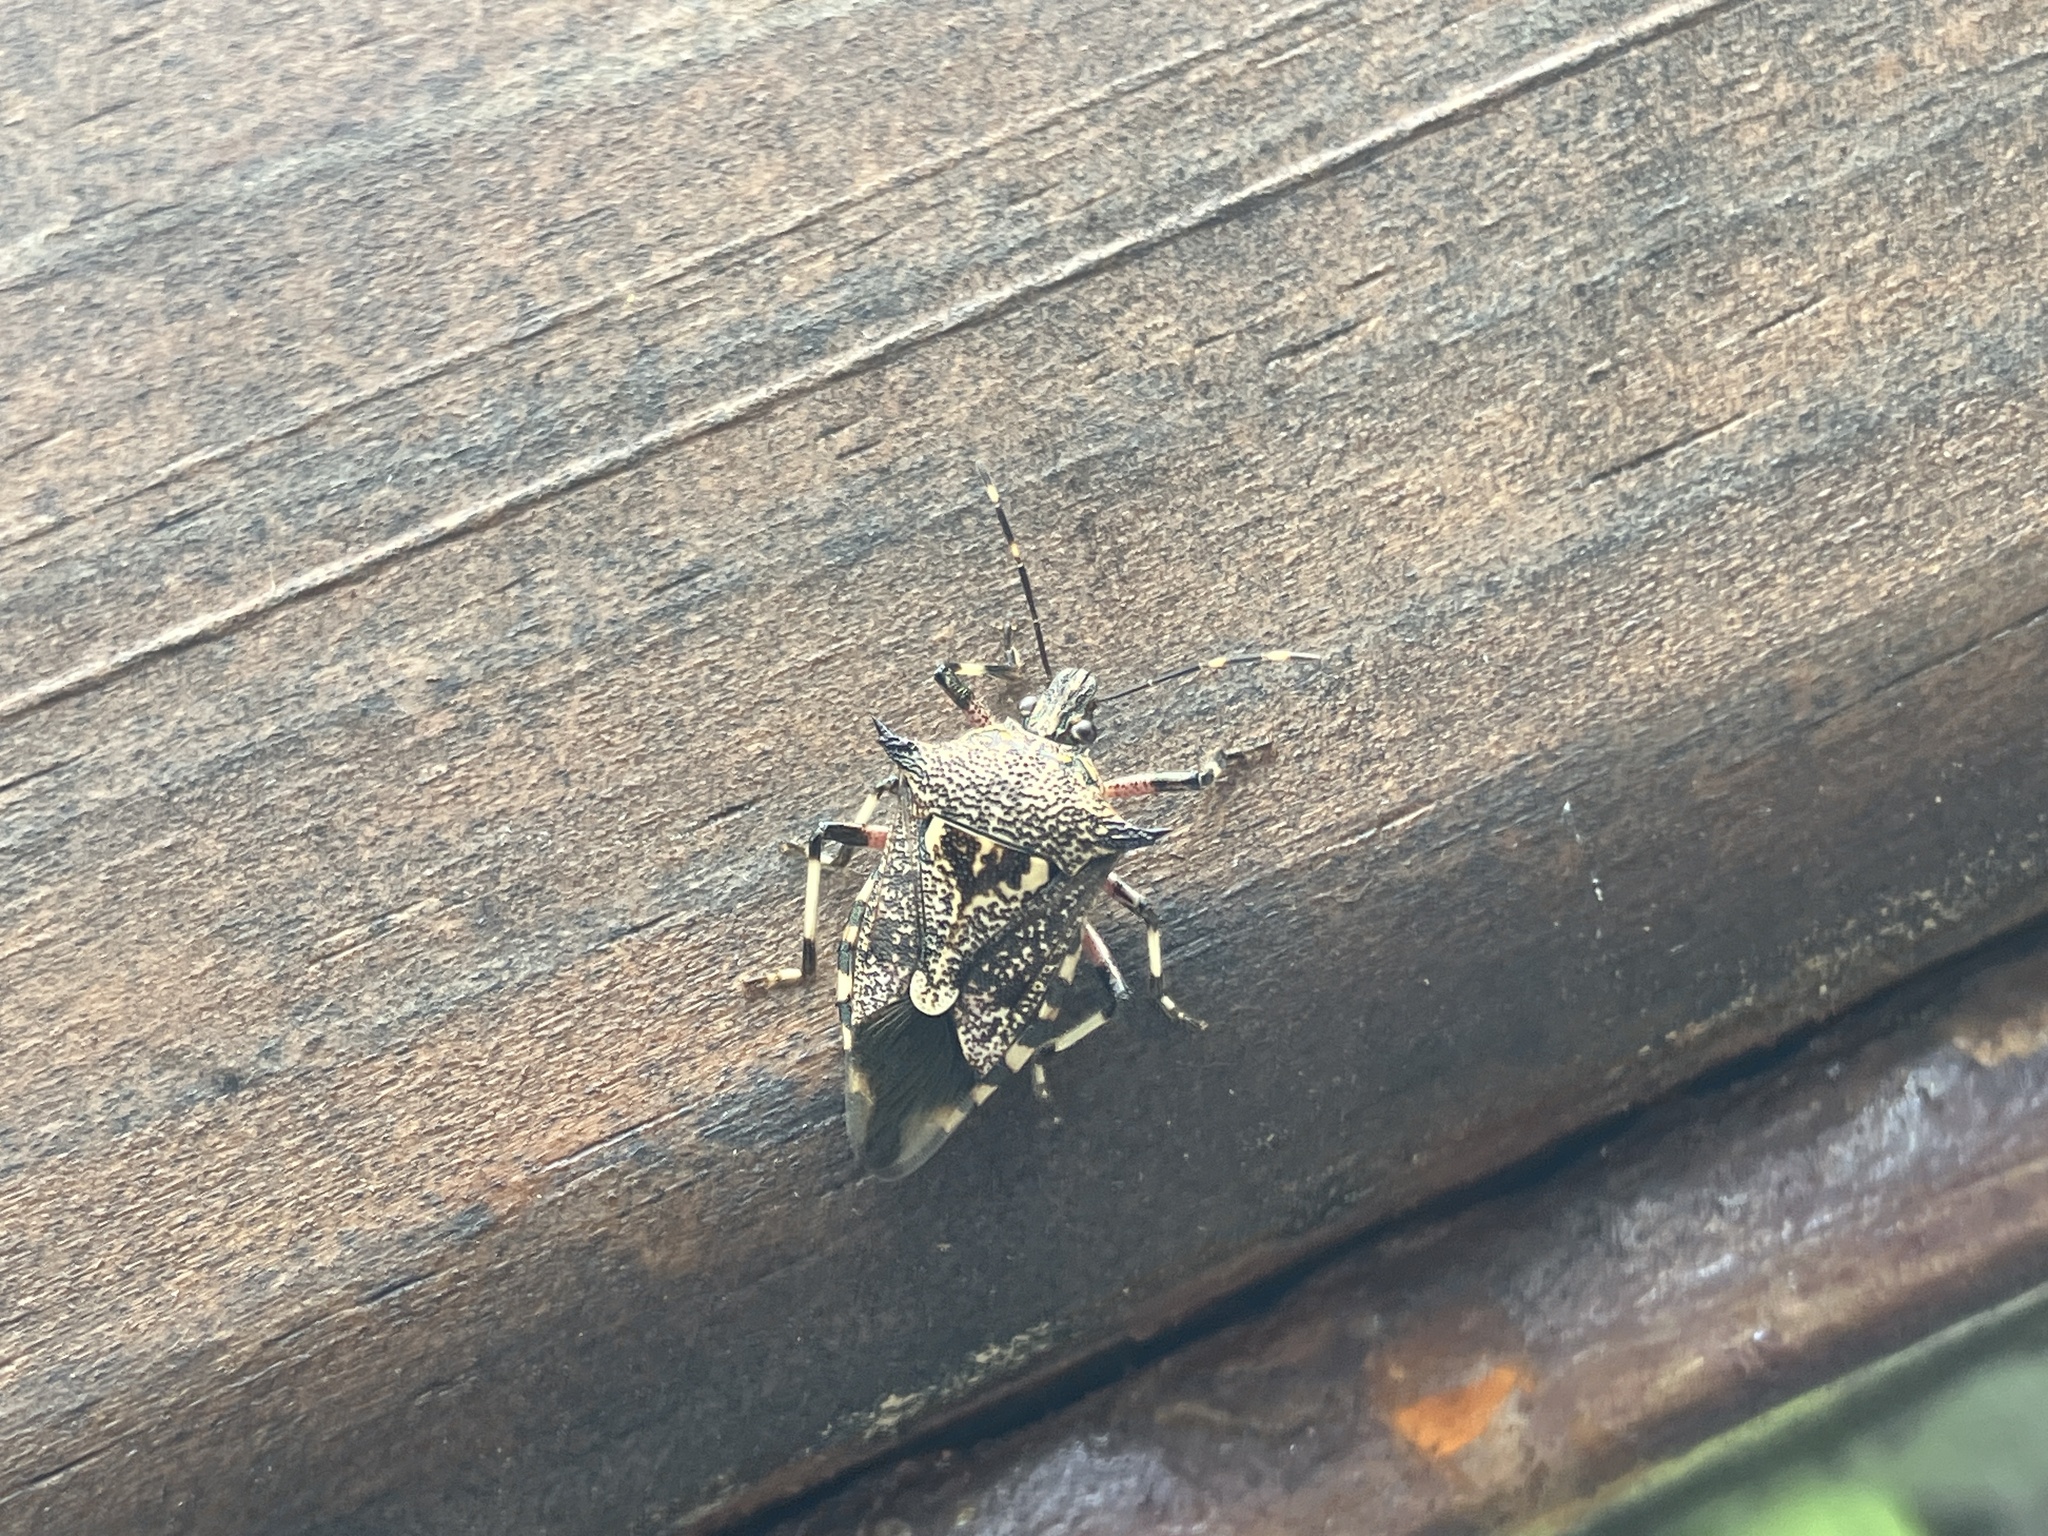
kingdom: Animalia
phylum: Arthropoda
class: Insecta
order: Hemiptera
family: Pentatomidae
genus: Eocanthecoma
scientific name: Eocanthecoma furcellata
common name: Stink bug
